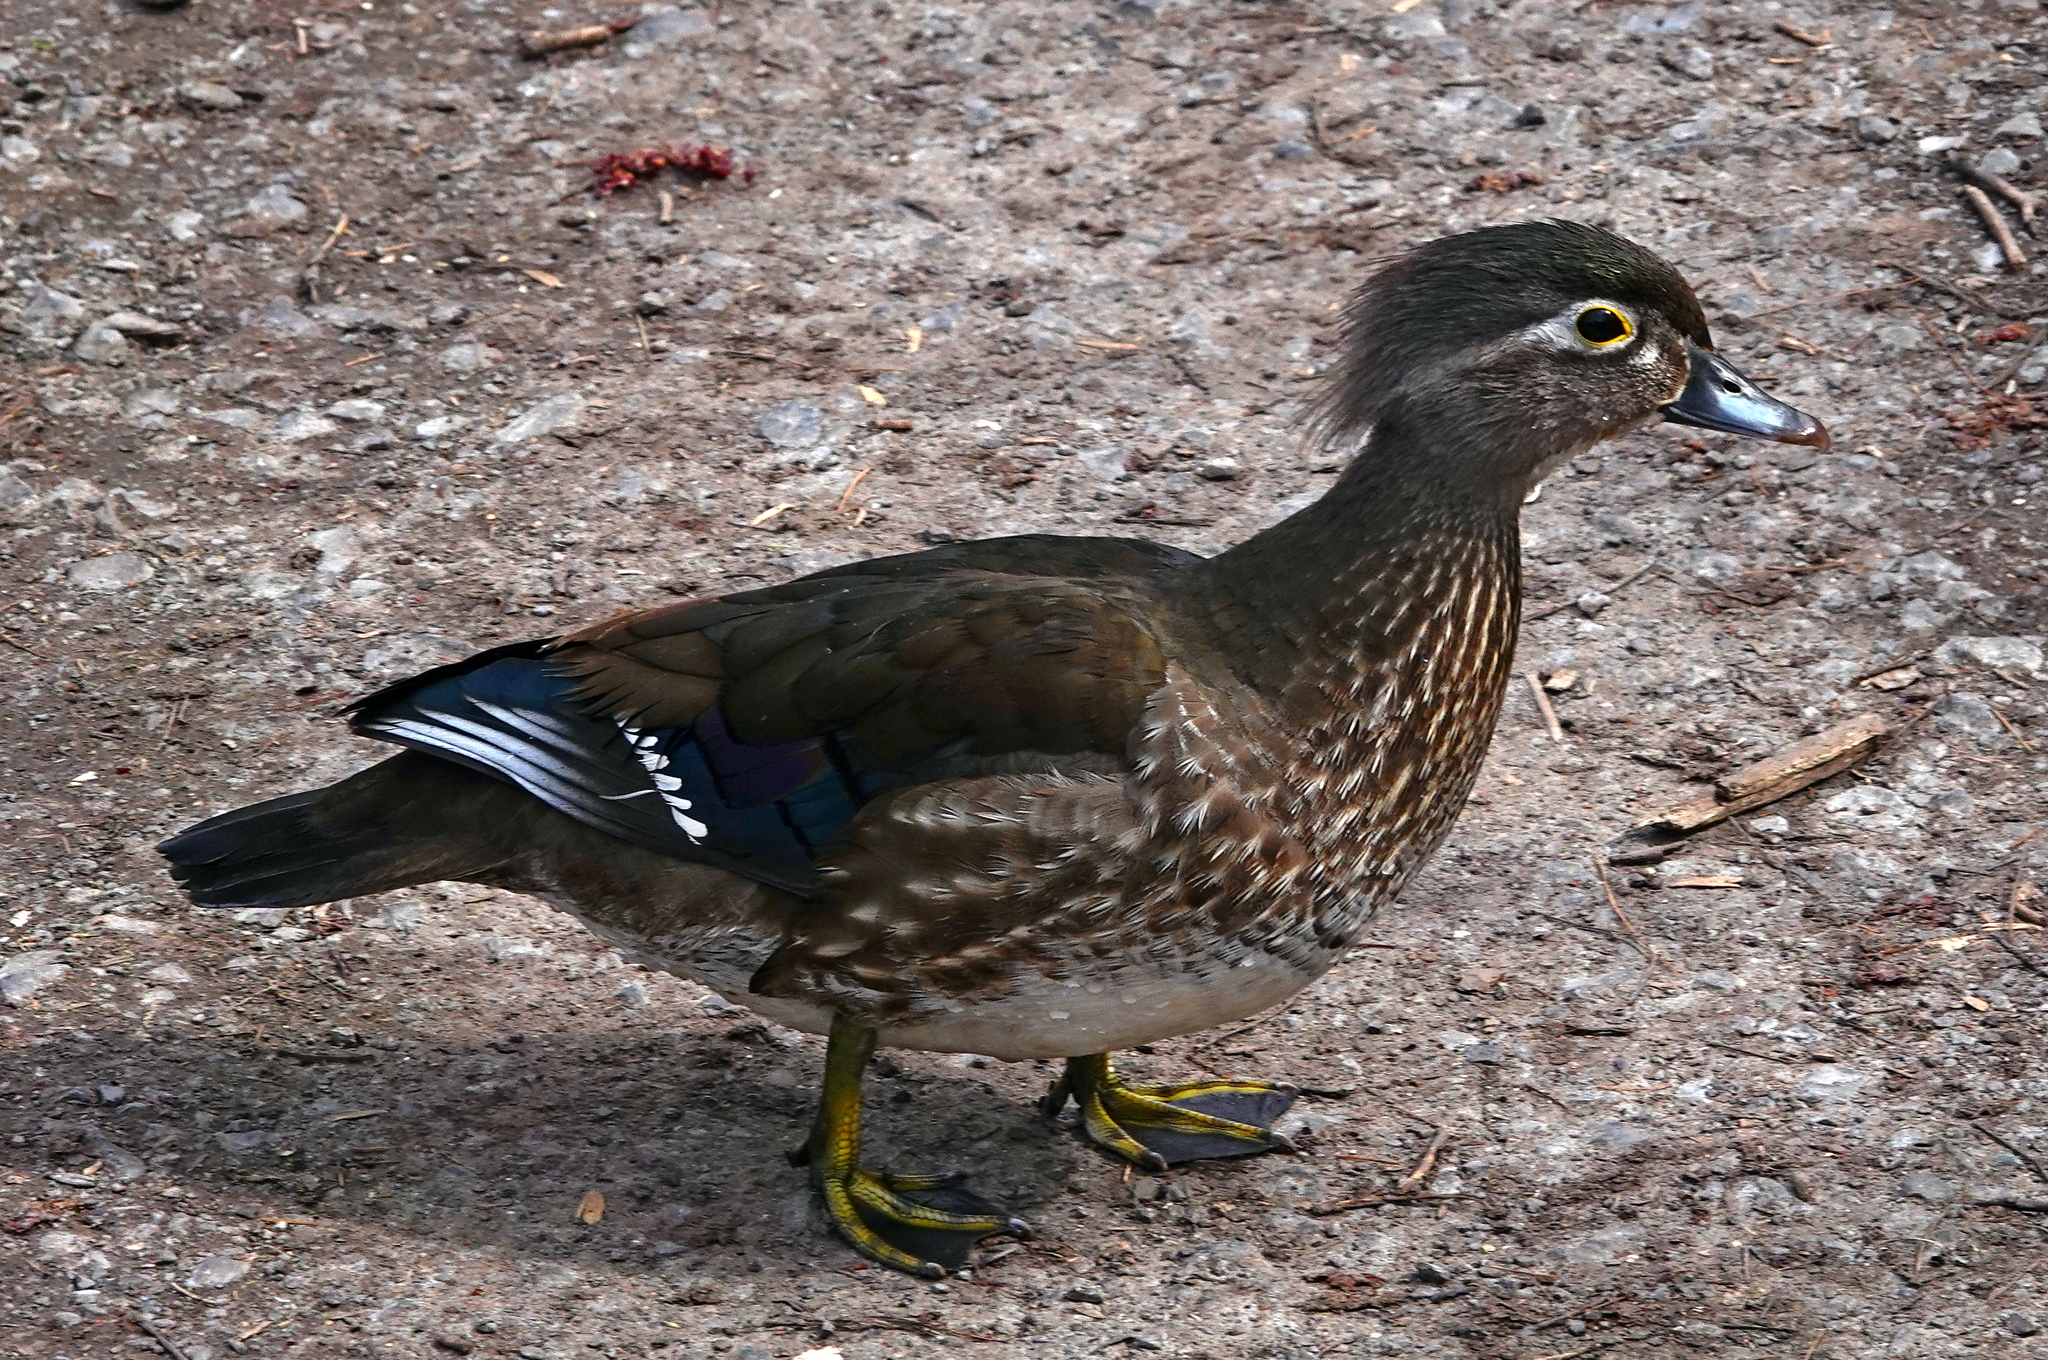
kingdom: Animalia
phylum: Chordata
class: Aves
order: Anseriformes
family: Anatidae
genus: Aix
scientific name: Aix sponsa
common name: Wood duck
